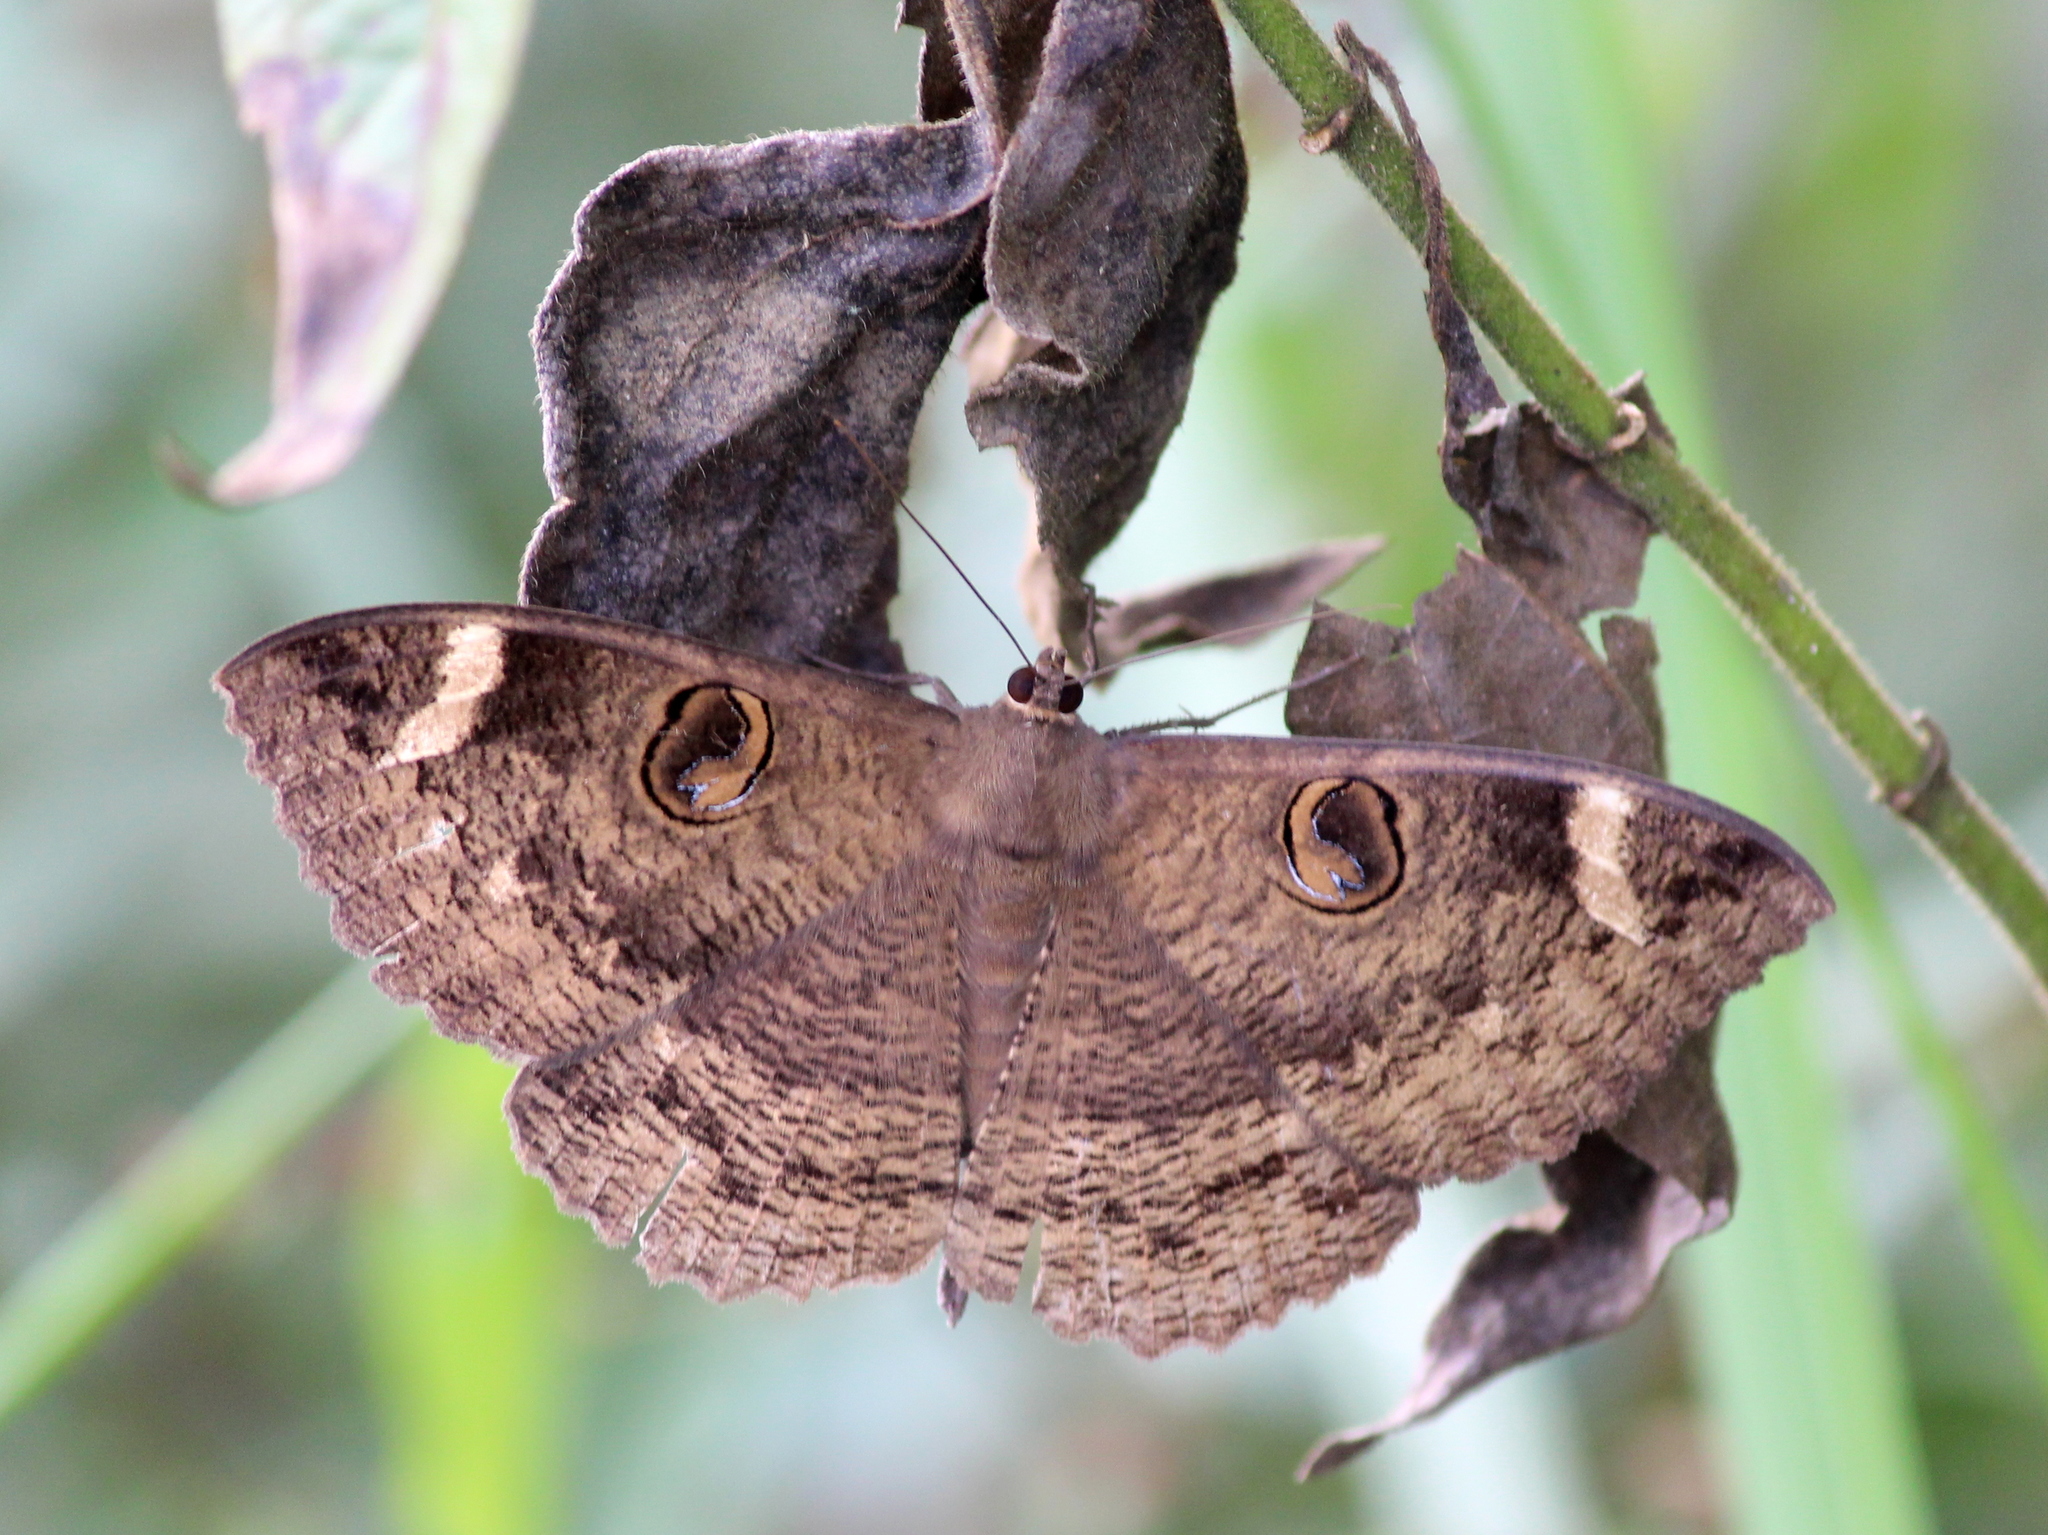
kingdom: Animalia
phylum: Arthropoda
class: Insecta
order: Lepidoptera
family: Erebidae
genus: Erebus
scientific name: Erebus hieroglyphica
